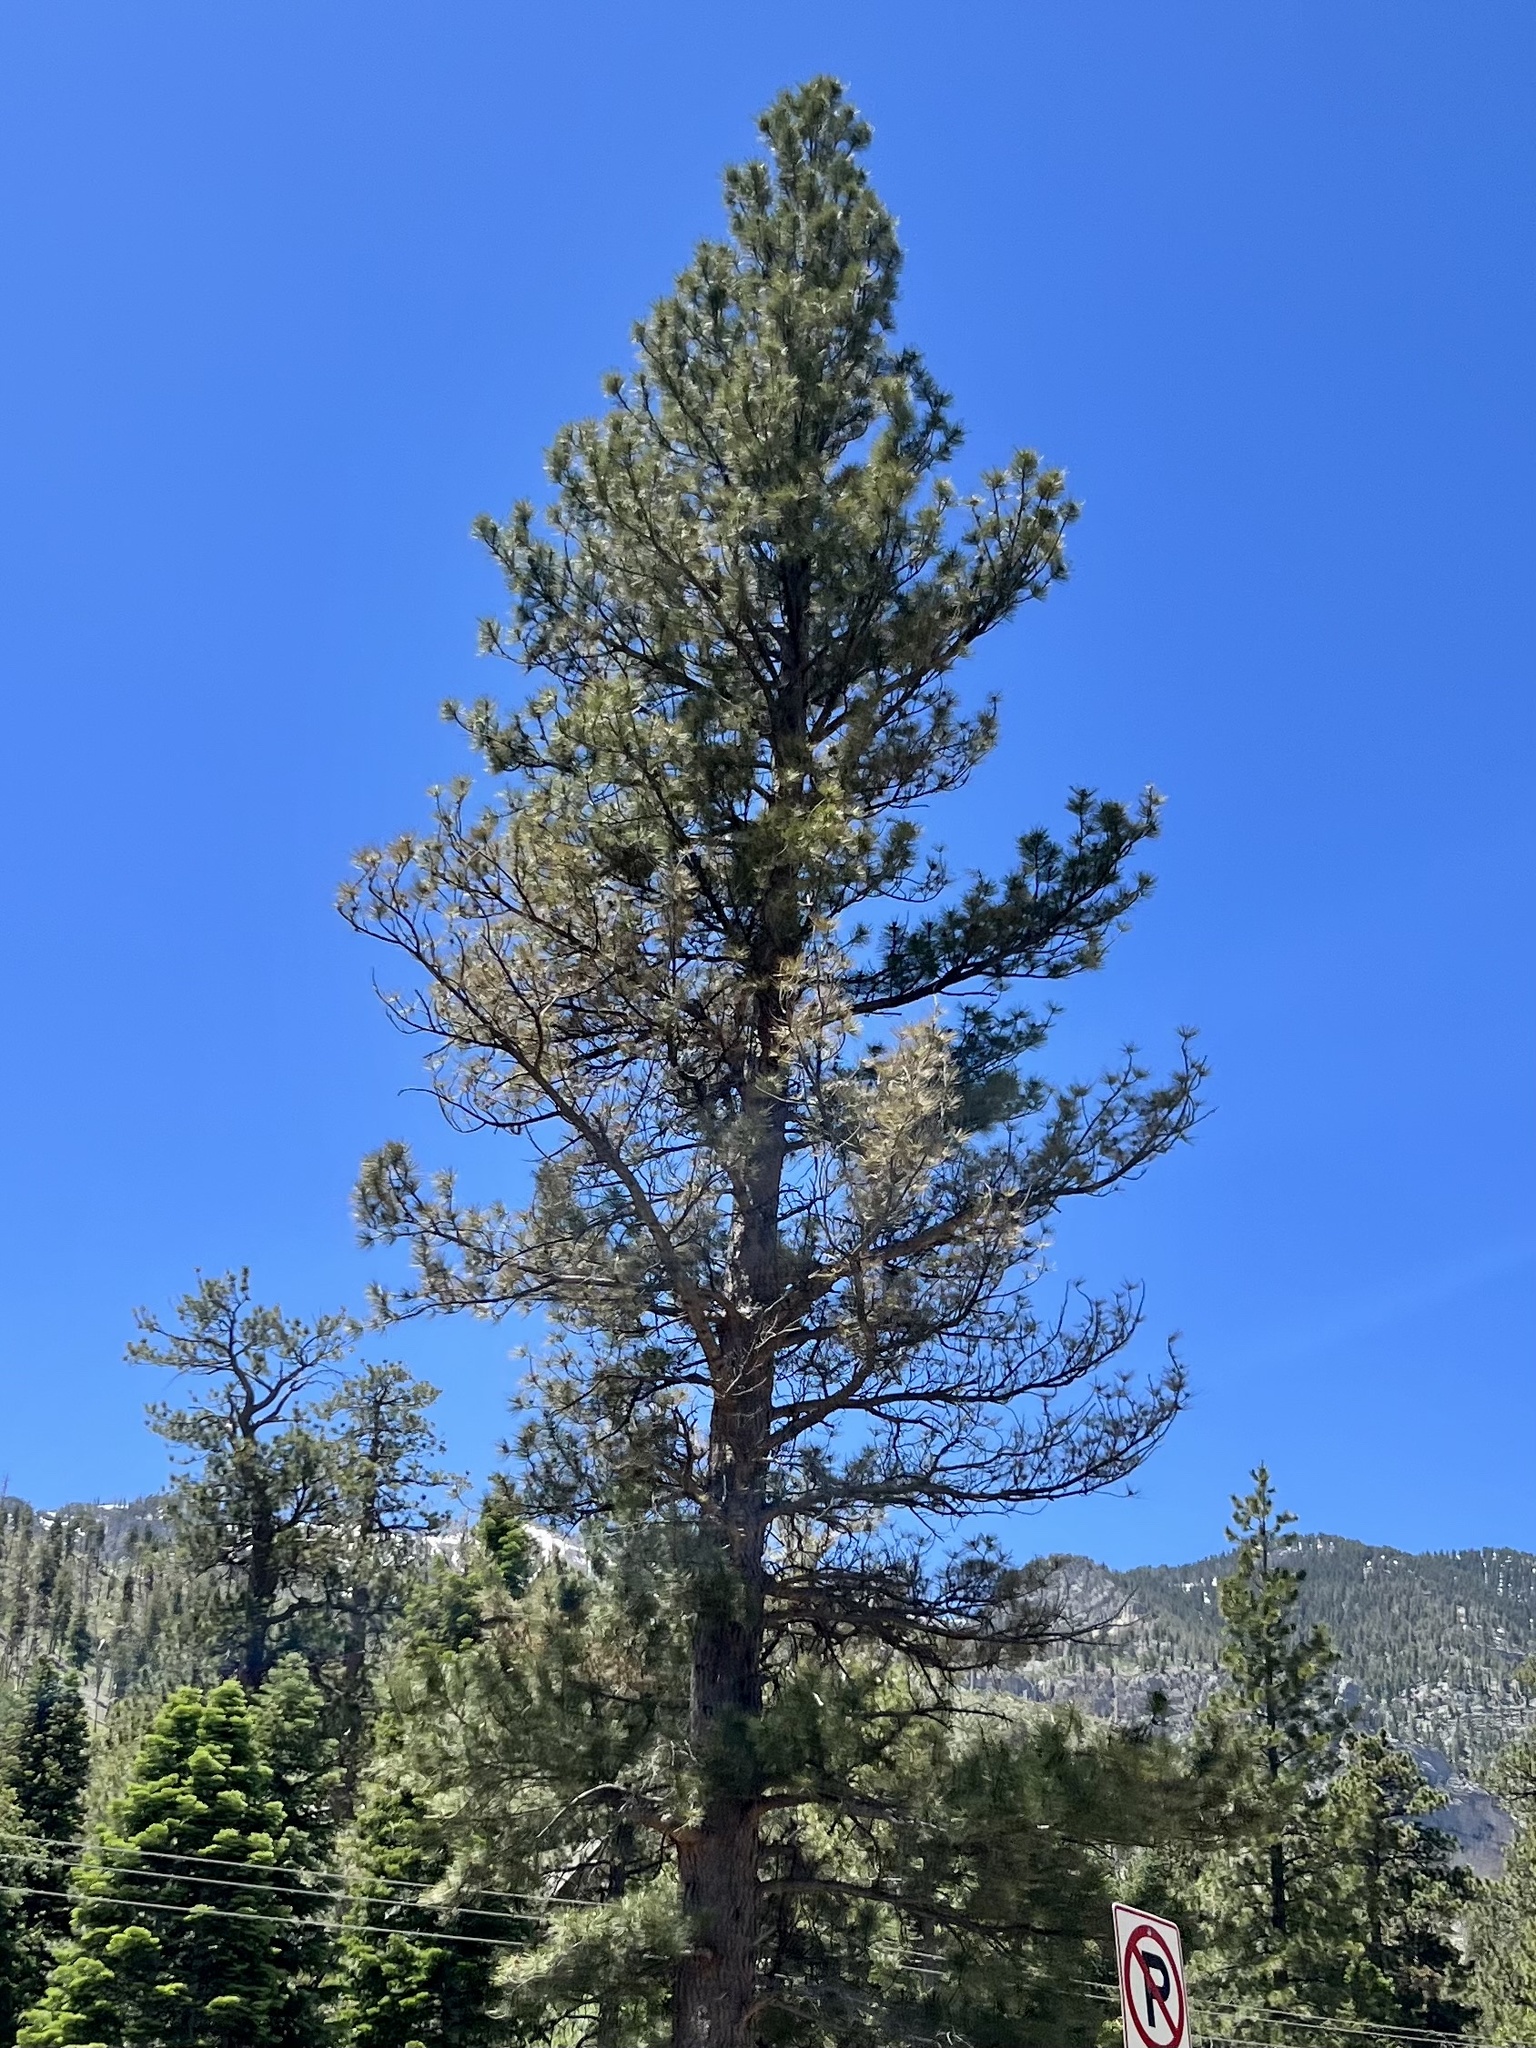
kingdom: Plantae
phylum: Tracheophyta
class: Pinopsida
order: Pinales
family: Pinaceae
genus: Pinus
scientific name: Pinus ponderosa
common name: Western yellow-pine
